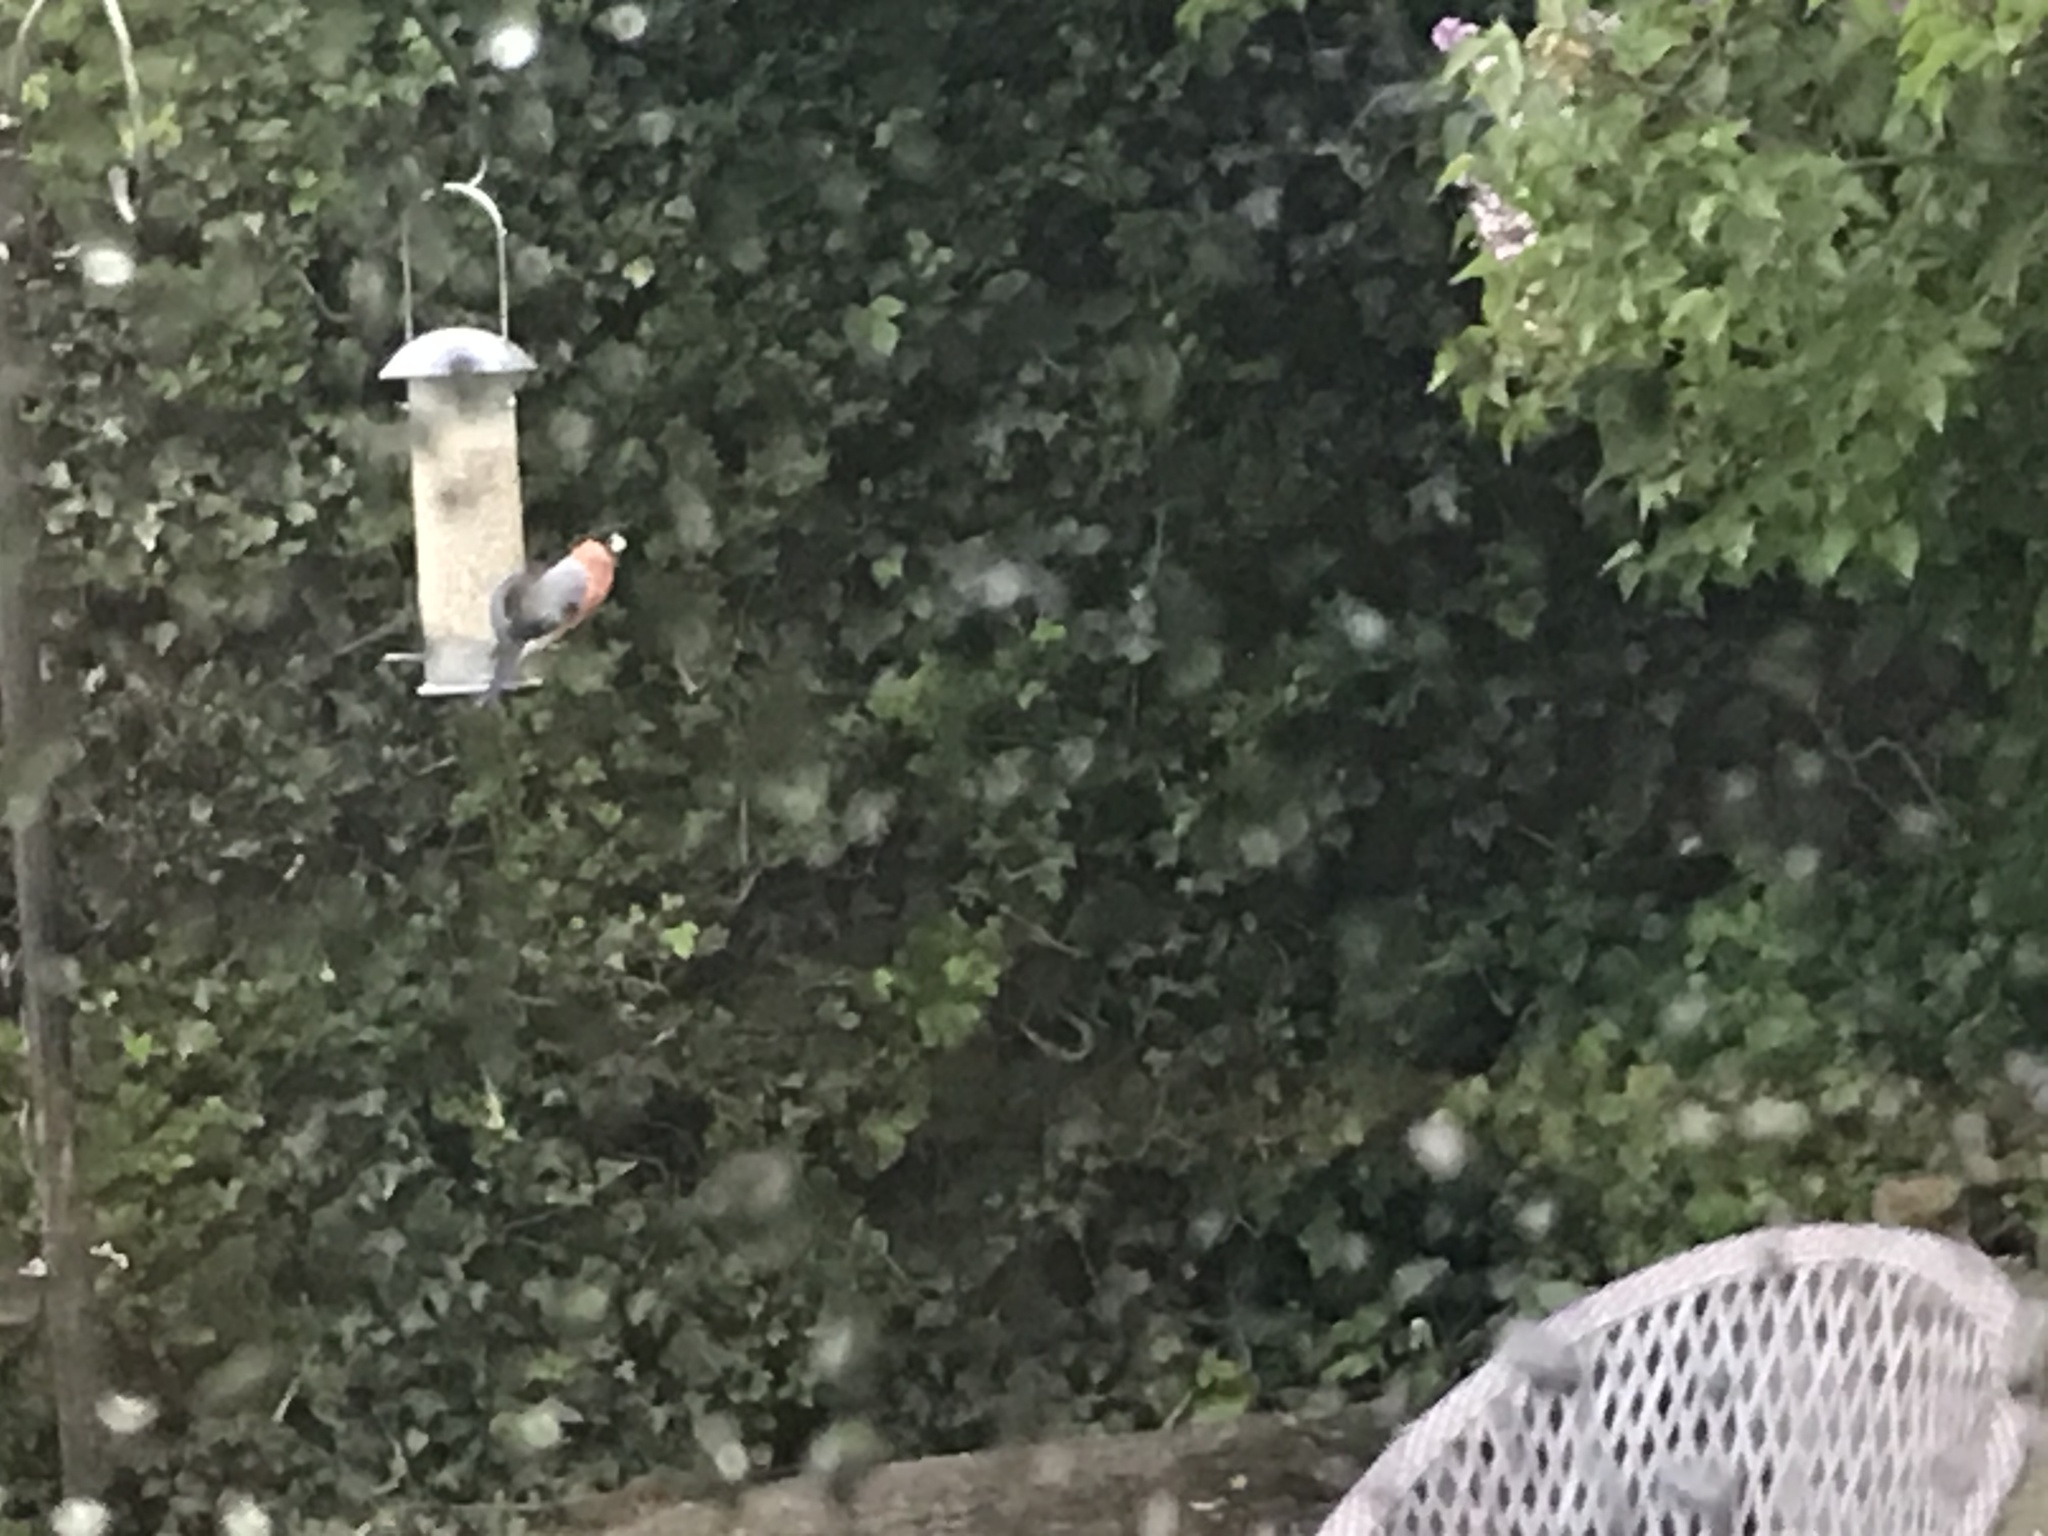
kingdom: Animalia
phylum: Chordata
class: Aves
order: Passeriformes
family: Fringillidae
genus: Pyrrhula
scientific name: Pyrrhula pyrrhula
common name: Eurasian bullfinch
